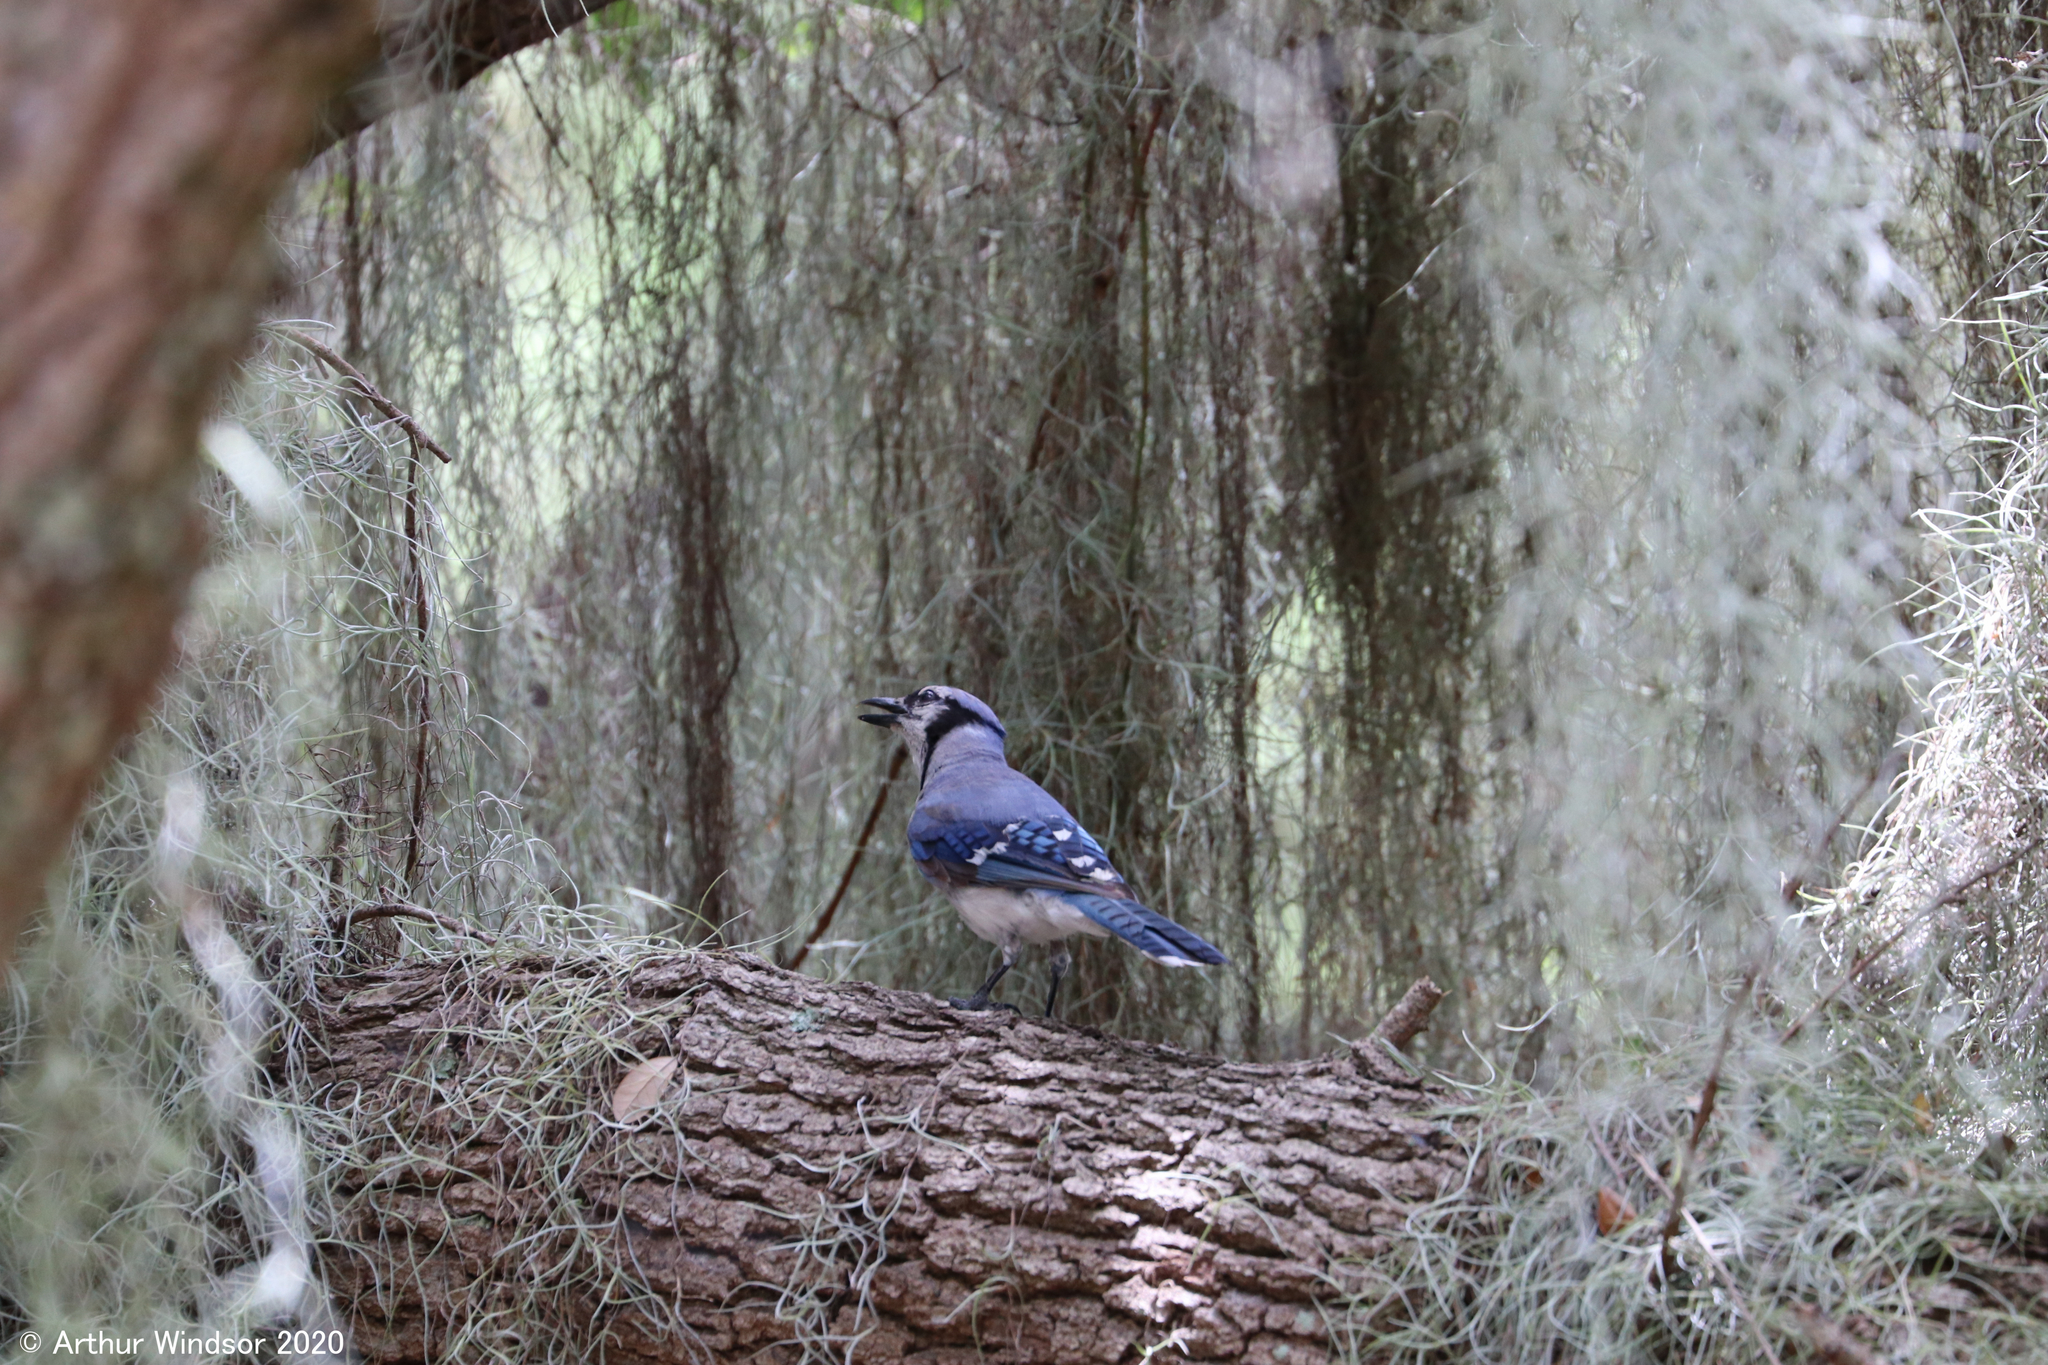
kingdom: Animalia
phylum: Chordata
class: Aves
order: Passeriformes
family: Corvidae
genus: Cyanocitta
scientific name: Cyanocitta cristata
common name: Blue jay
